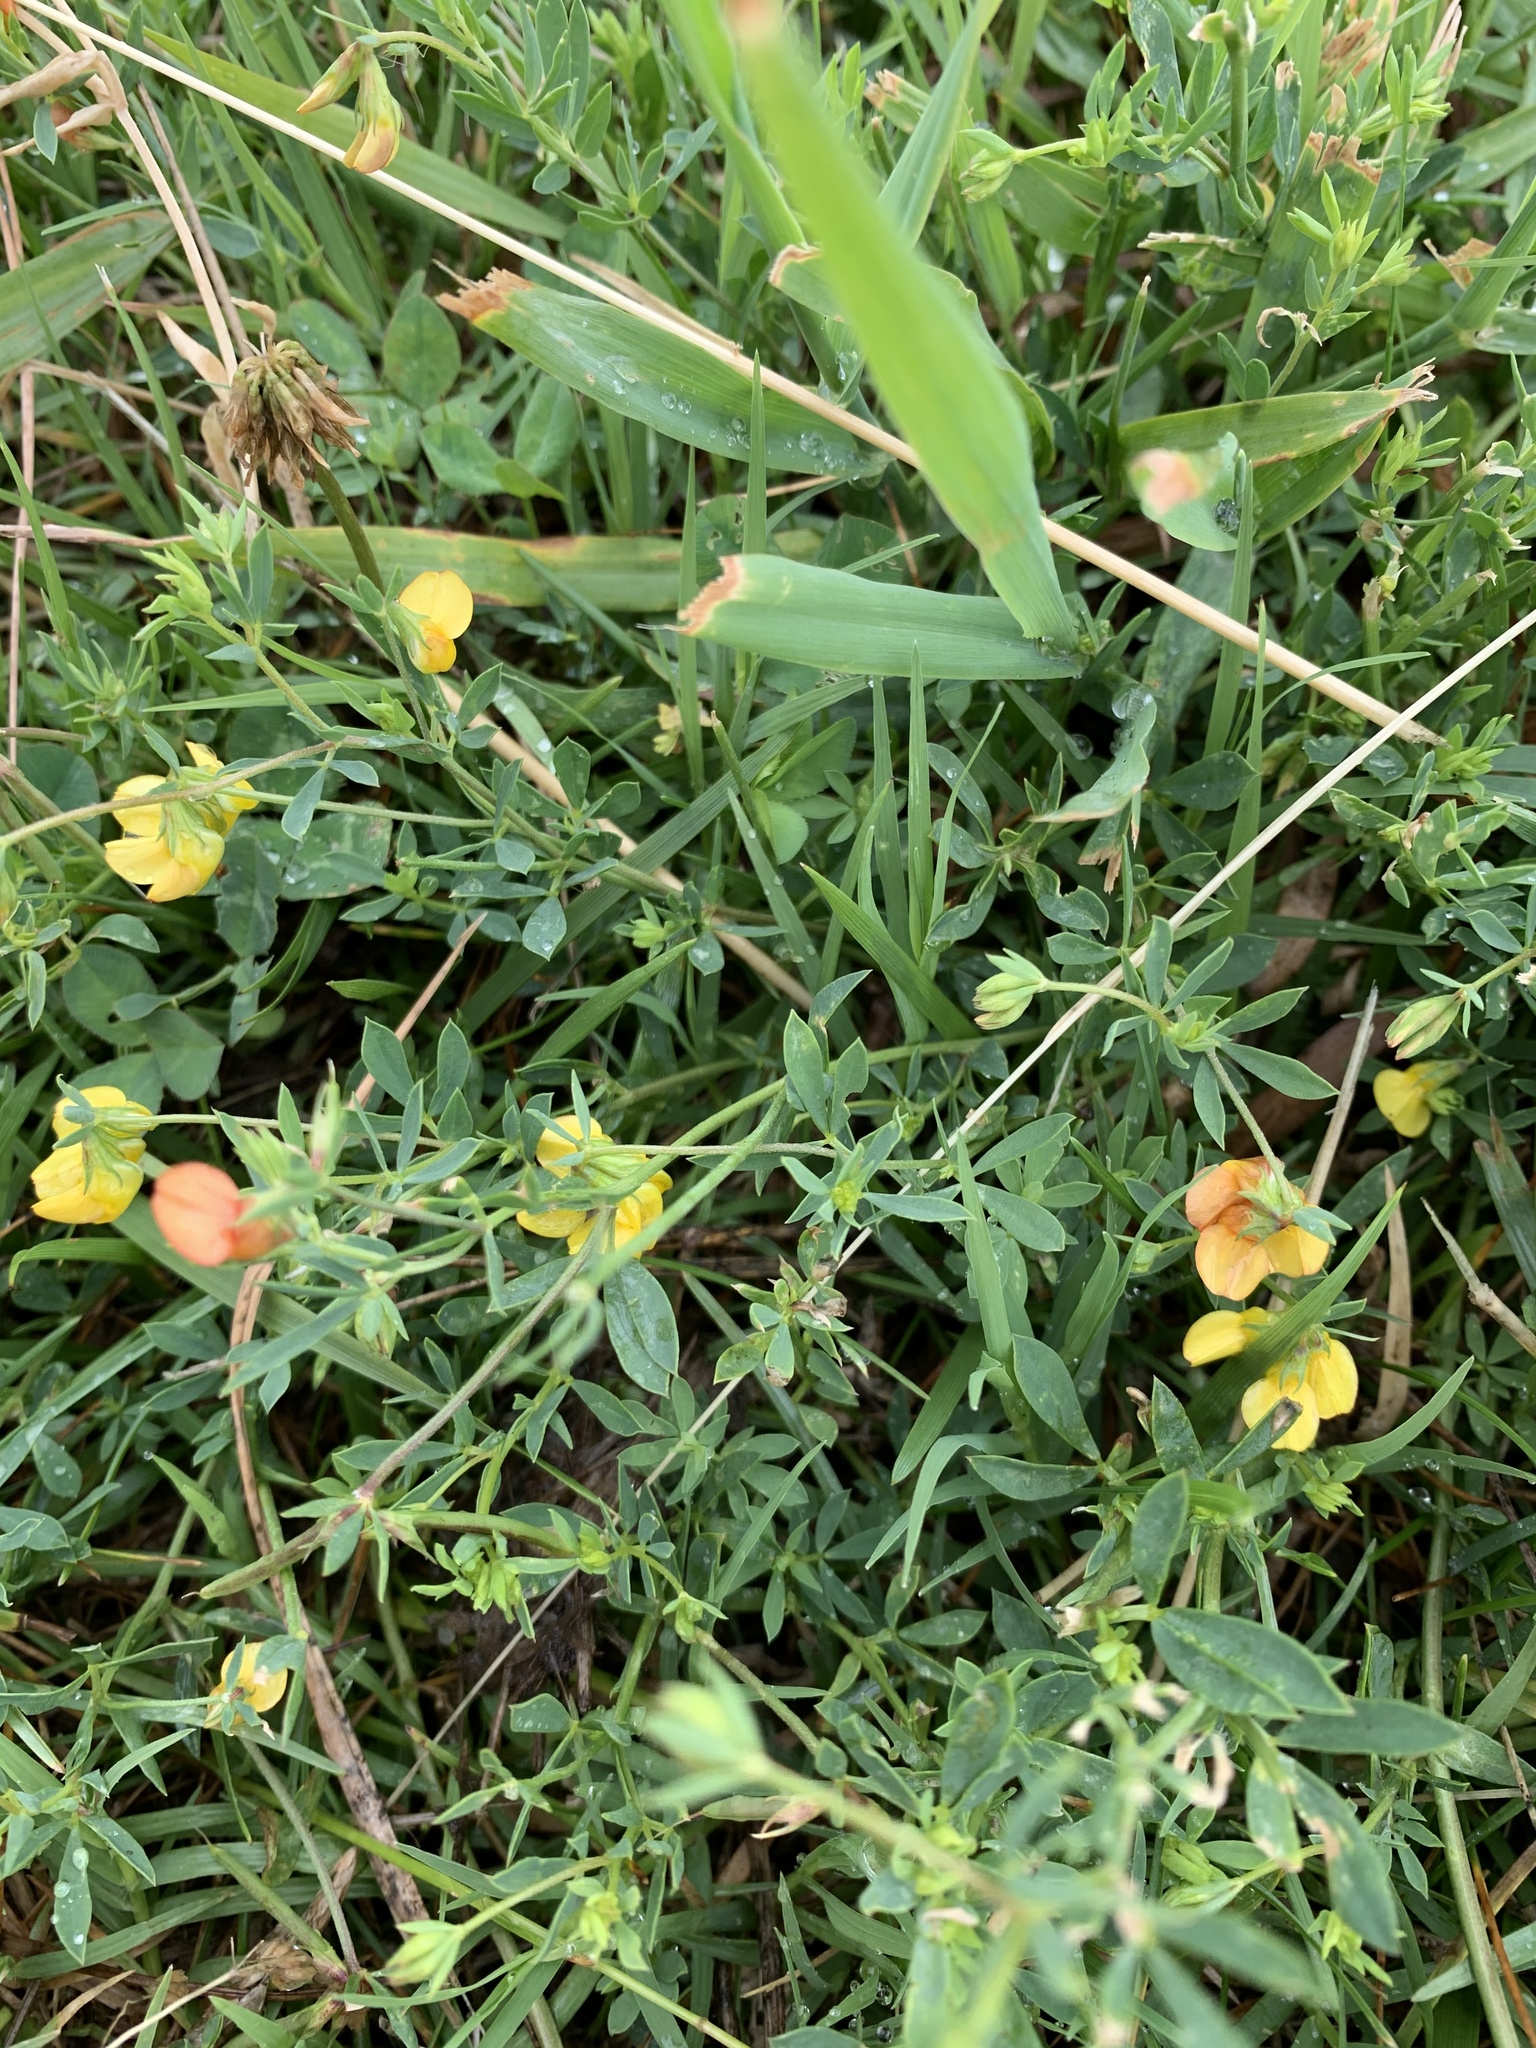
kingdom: Plantae
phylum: Tracheophyta
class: Magnoliopsida
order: Fabales
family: Fabaceae
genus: Lotus
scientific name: Lotus corniculatus
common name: Common bird's-foot-trefoil
